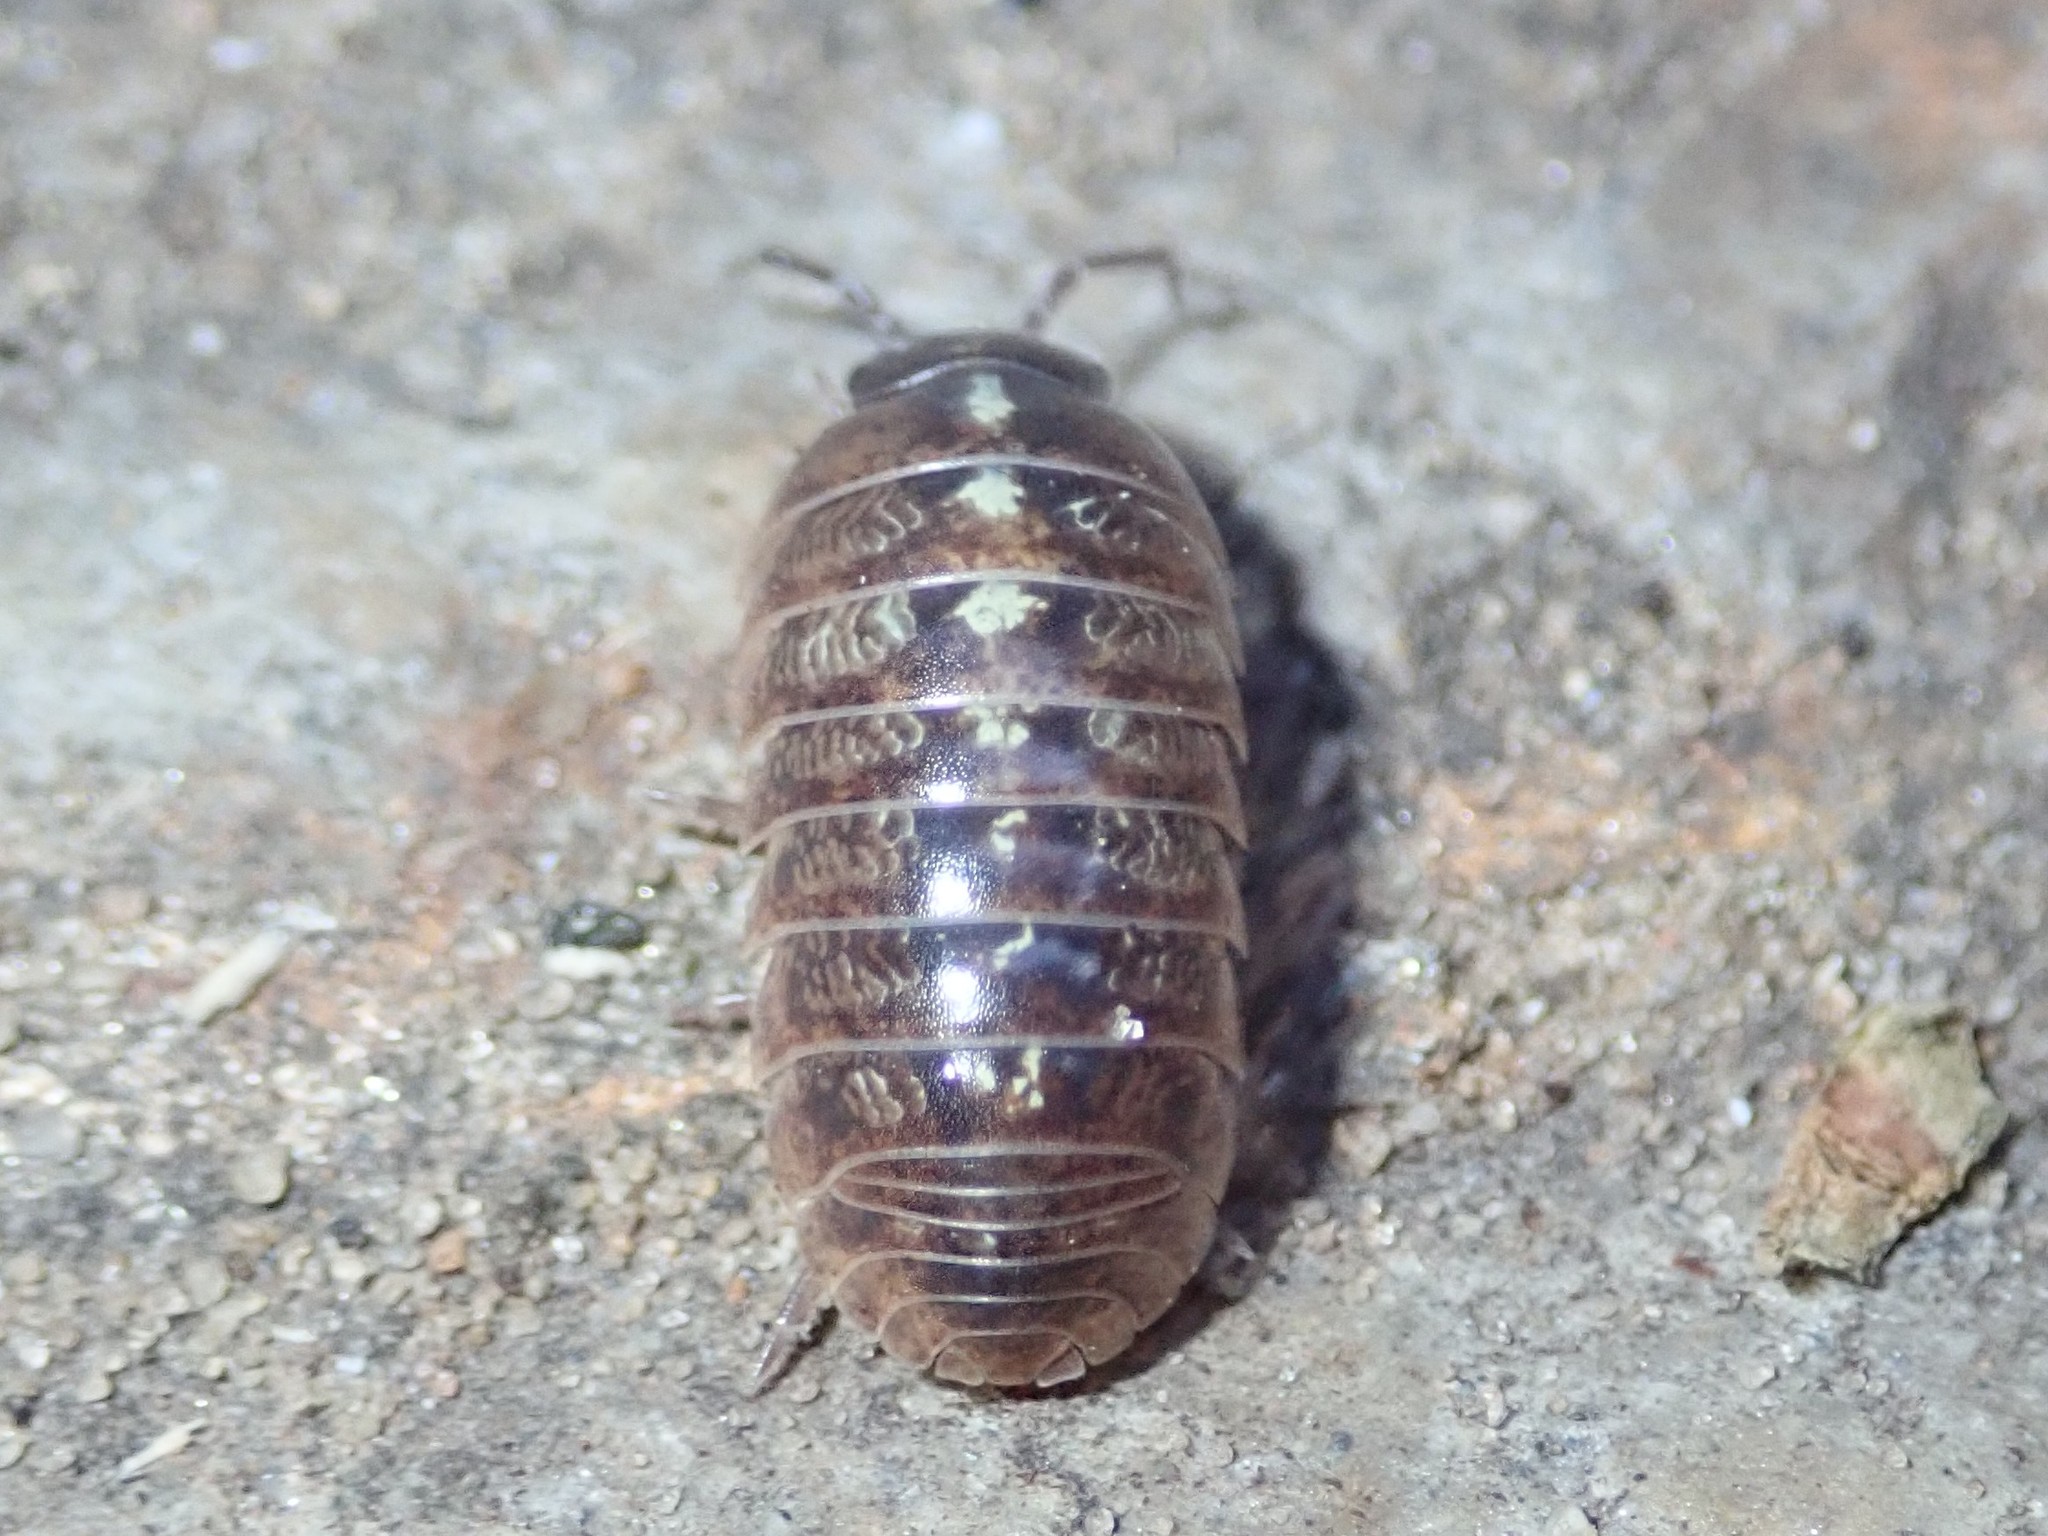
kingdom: Animalia
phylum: Arthropoda
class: Malacostraca
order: Isopoda
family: Armadillidiidae
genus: Armadillidium
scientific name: Armadillidium vulgare
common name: Common pill woodlouse
